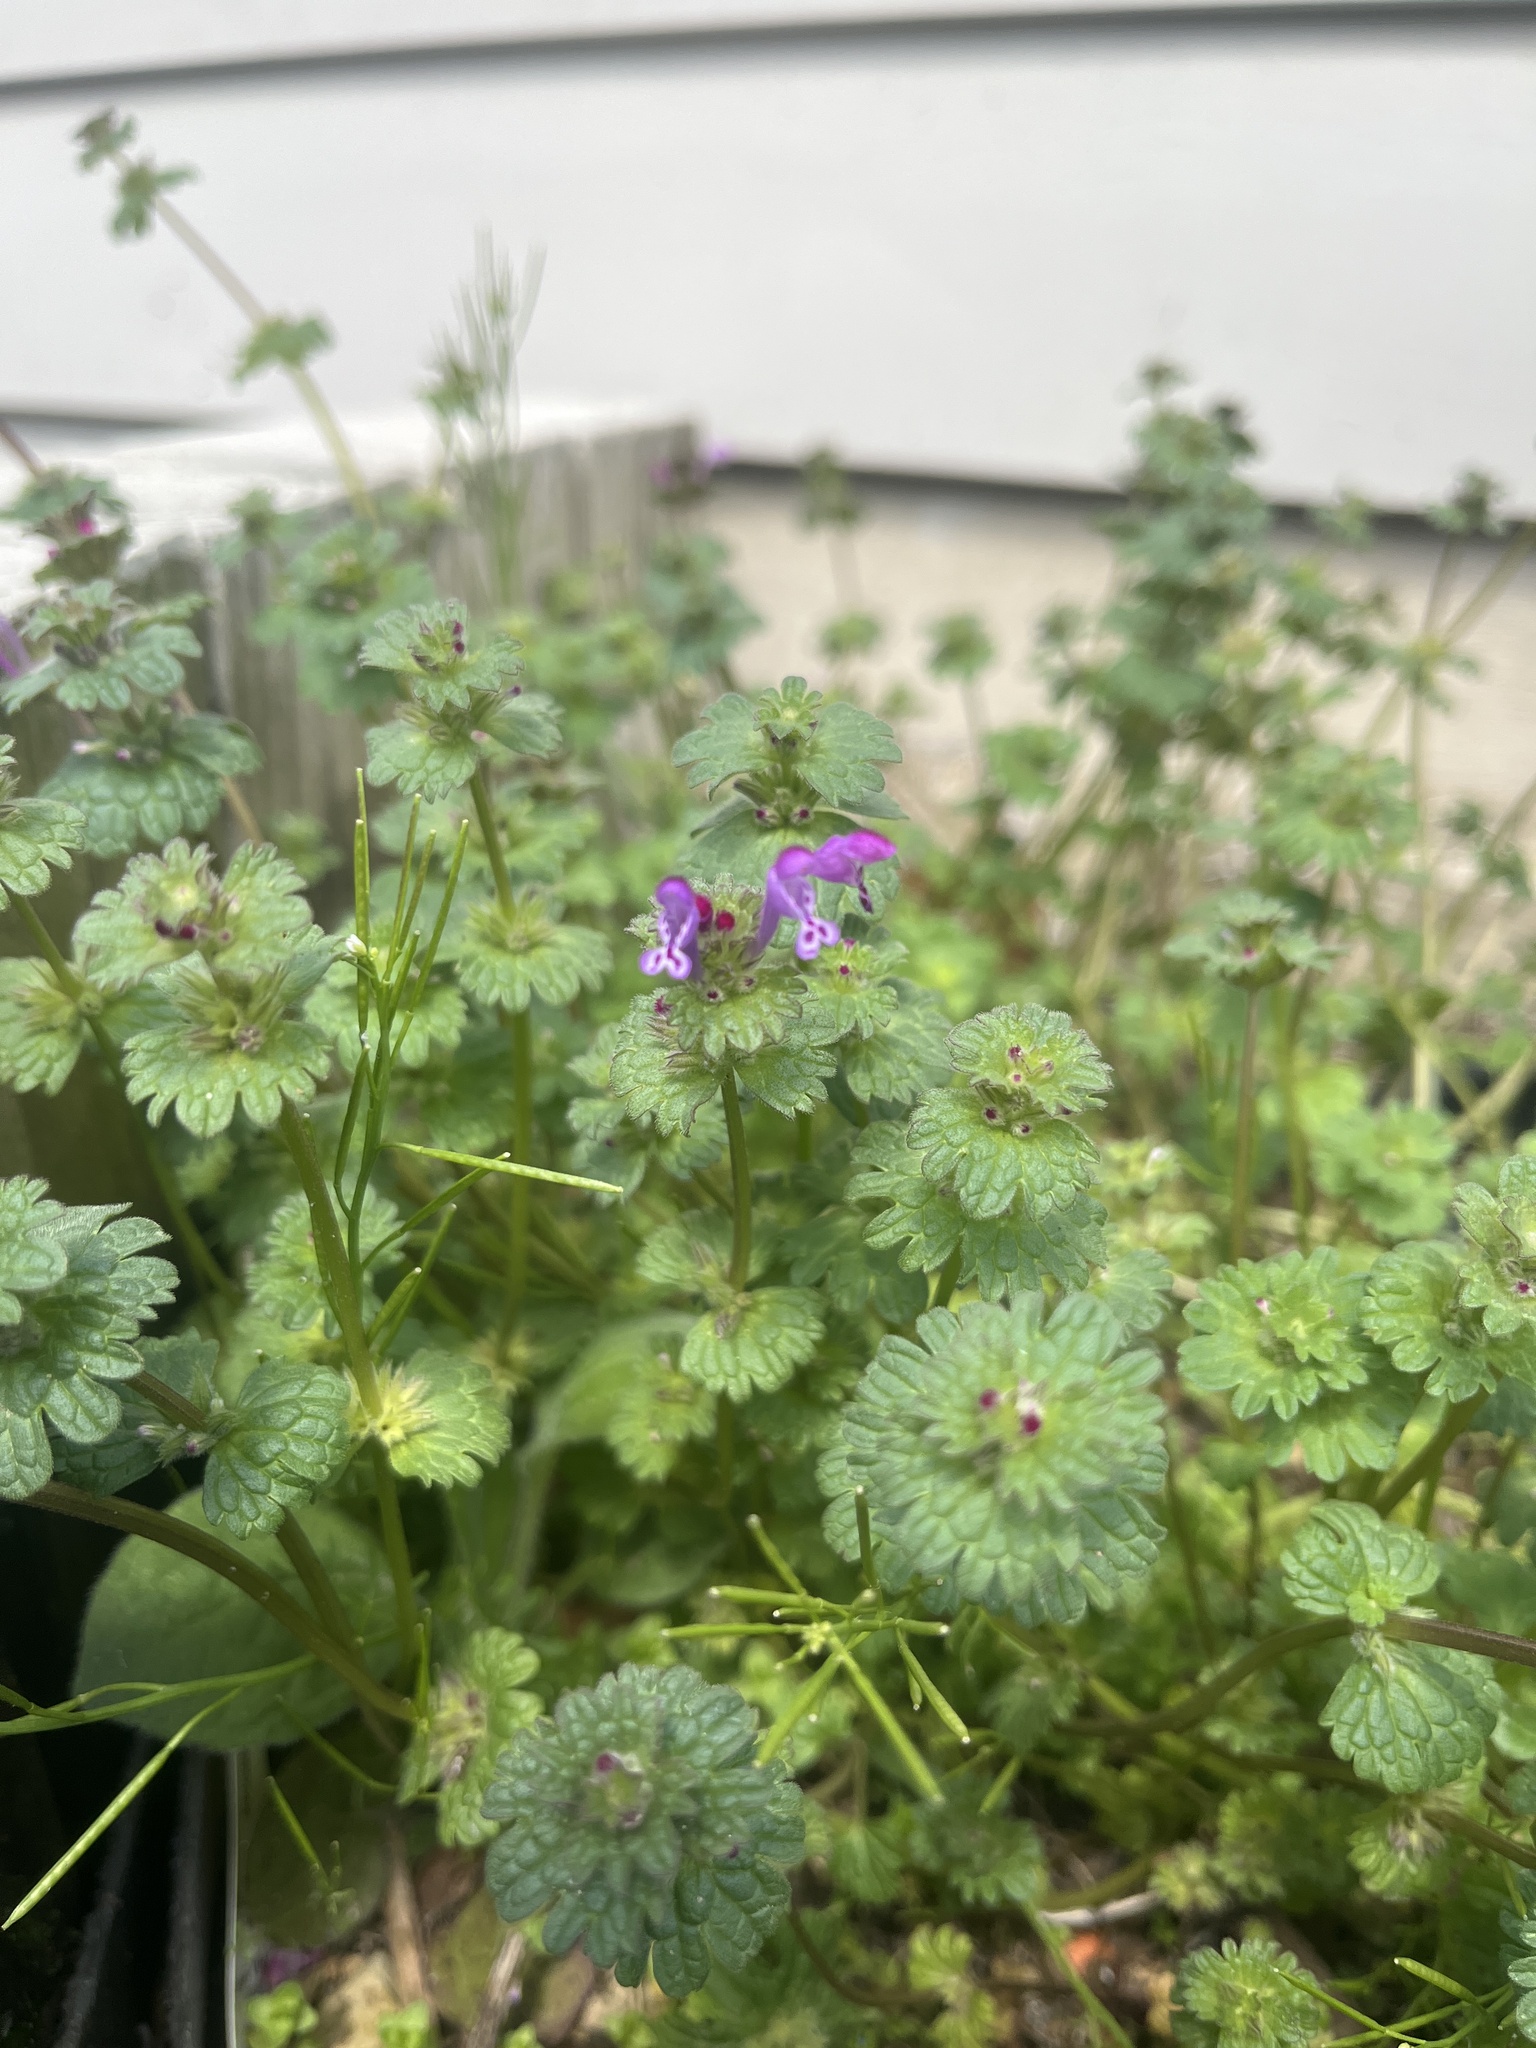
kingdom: Plantae
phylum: Tracheophyta
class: Magnoliopsida
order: Lamiales
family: Lamiaceae
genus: Lamium
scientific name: Lamium amplexicaule
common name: Henbit dead-nettle
